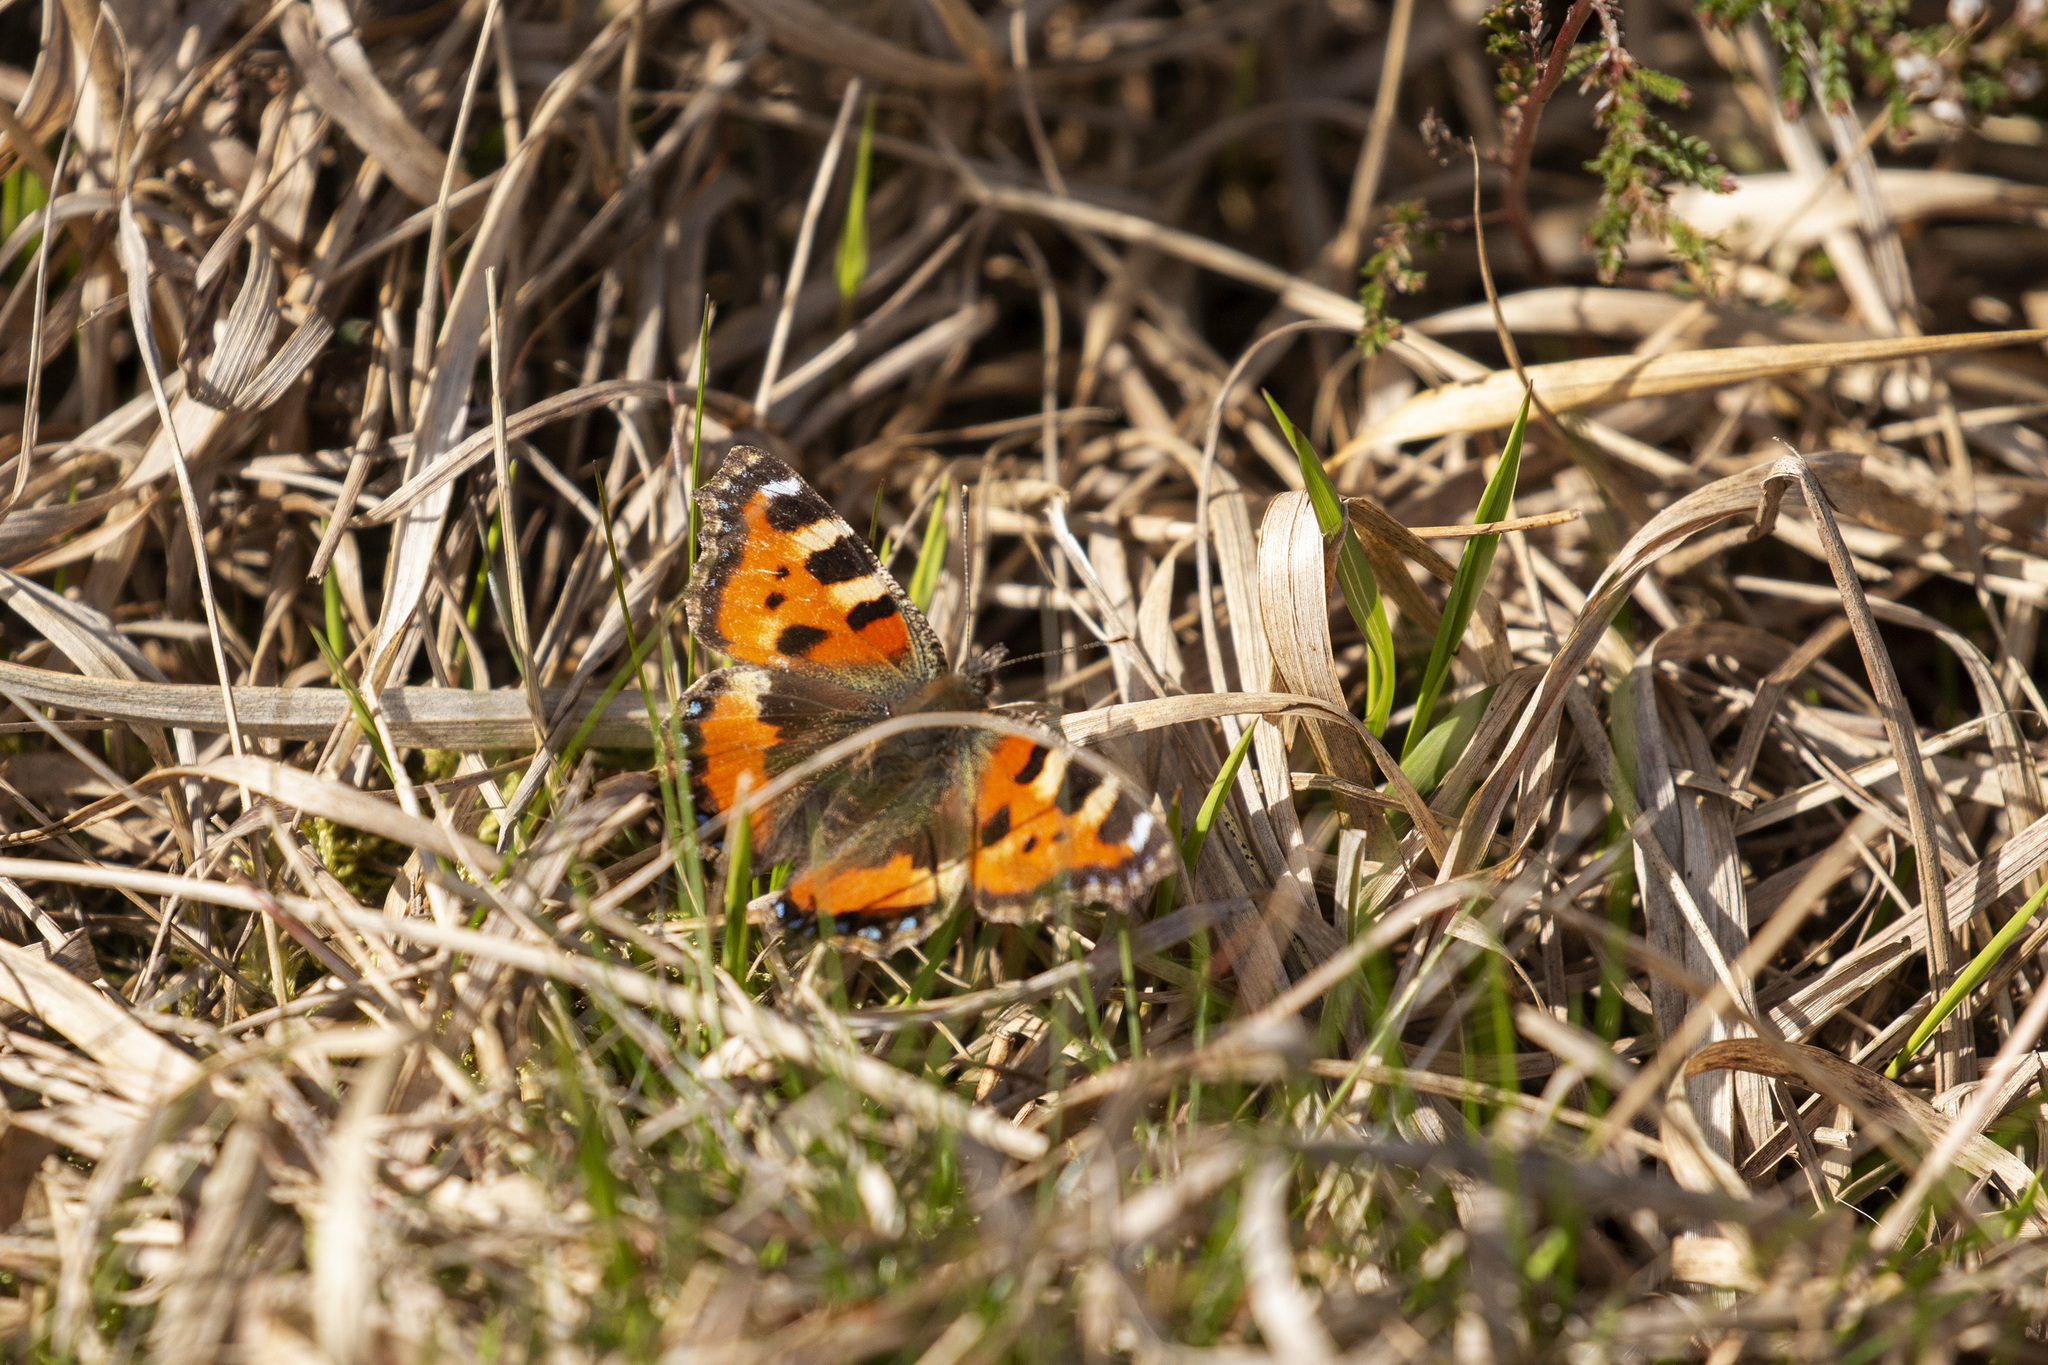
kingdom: Animalia
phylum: Arthropoda
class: Insecta
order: Lepidoptera
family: Nymphalidae
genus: Aglais
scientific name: Aglais urticae
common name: Small tortoiseshell
